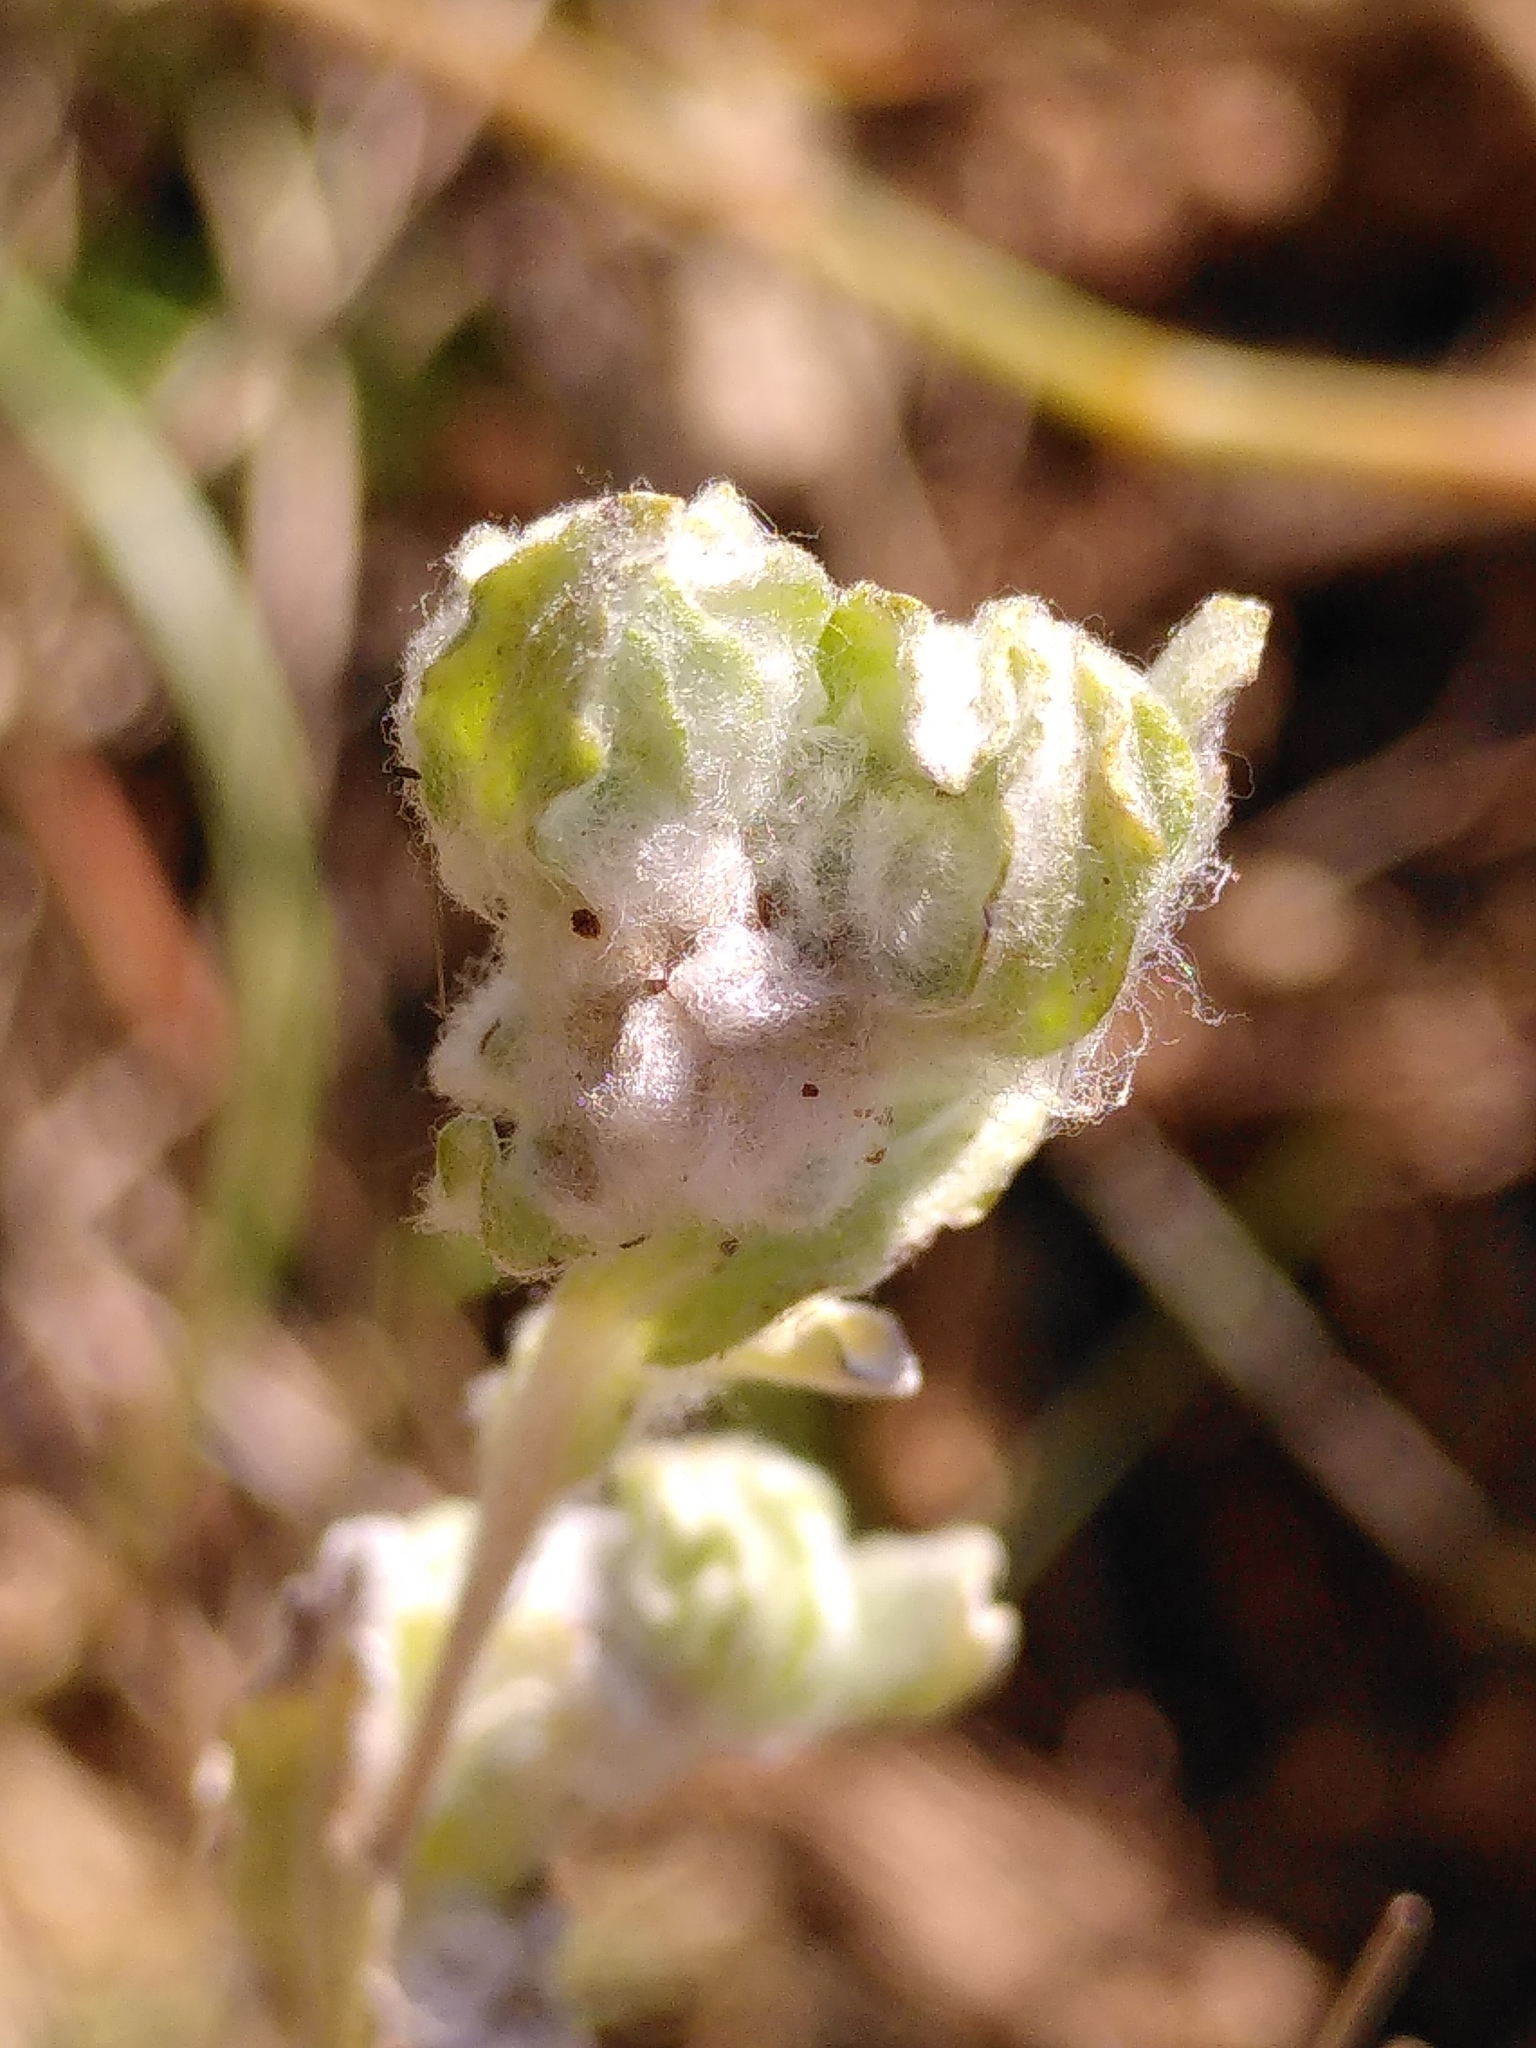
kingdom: Plantae
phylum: Tracheophyta
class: Magnoliopsida
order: Asterales
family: Asteraceae
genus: Bombycilaena
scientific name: Bombycilaena erecta
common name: Micropus
